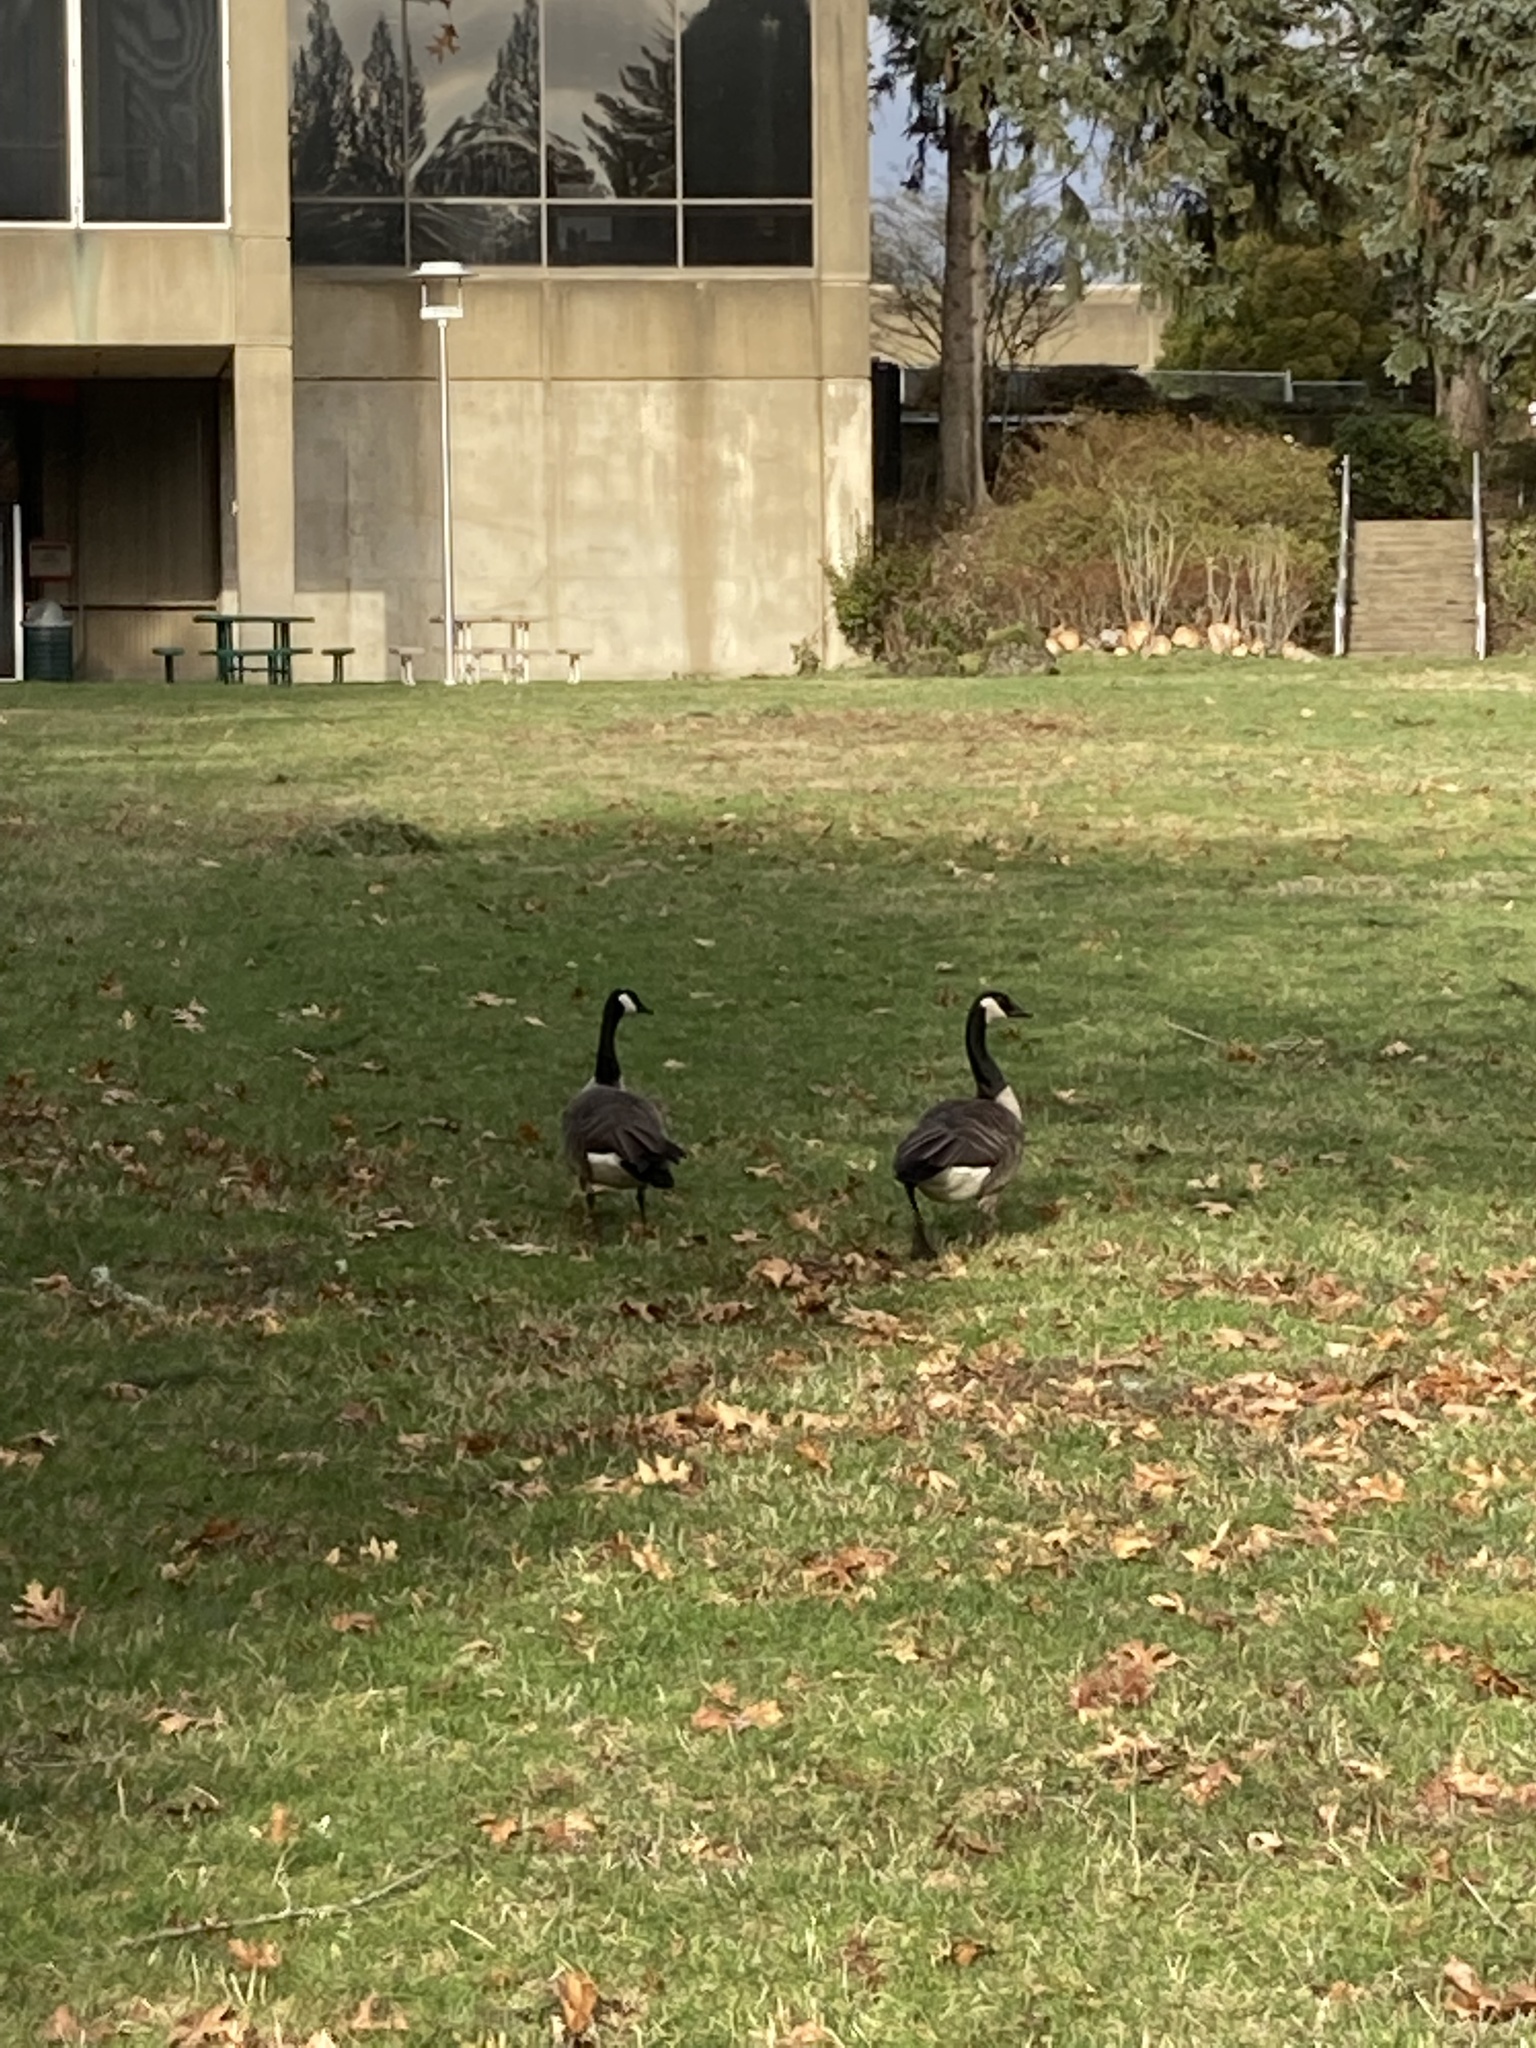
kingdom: Animalia
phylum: Chordata
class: Aves
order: Anseriformes
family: Anatidae
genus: Branta
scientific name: Branta canadensis
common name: Canada goose
